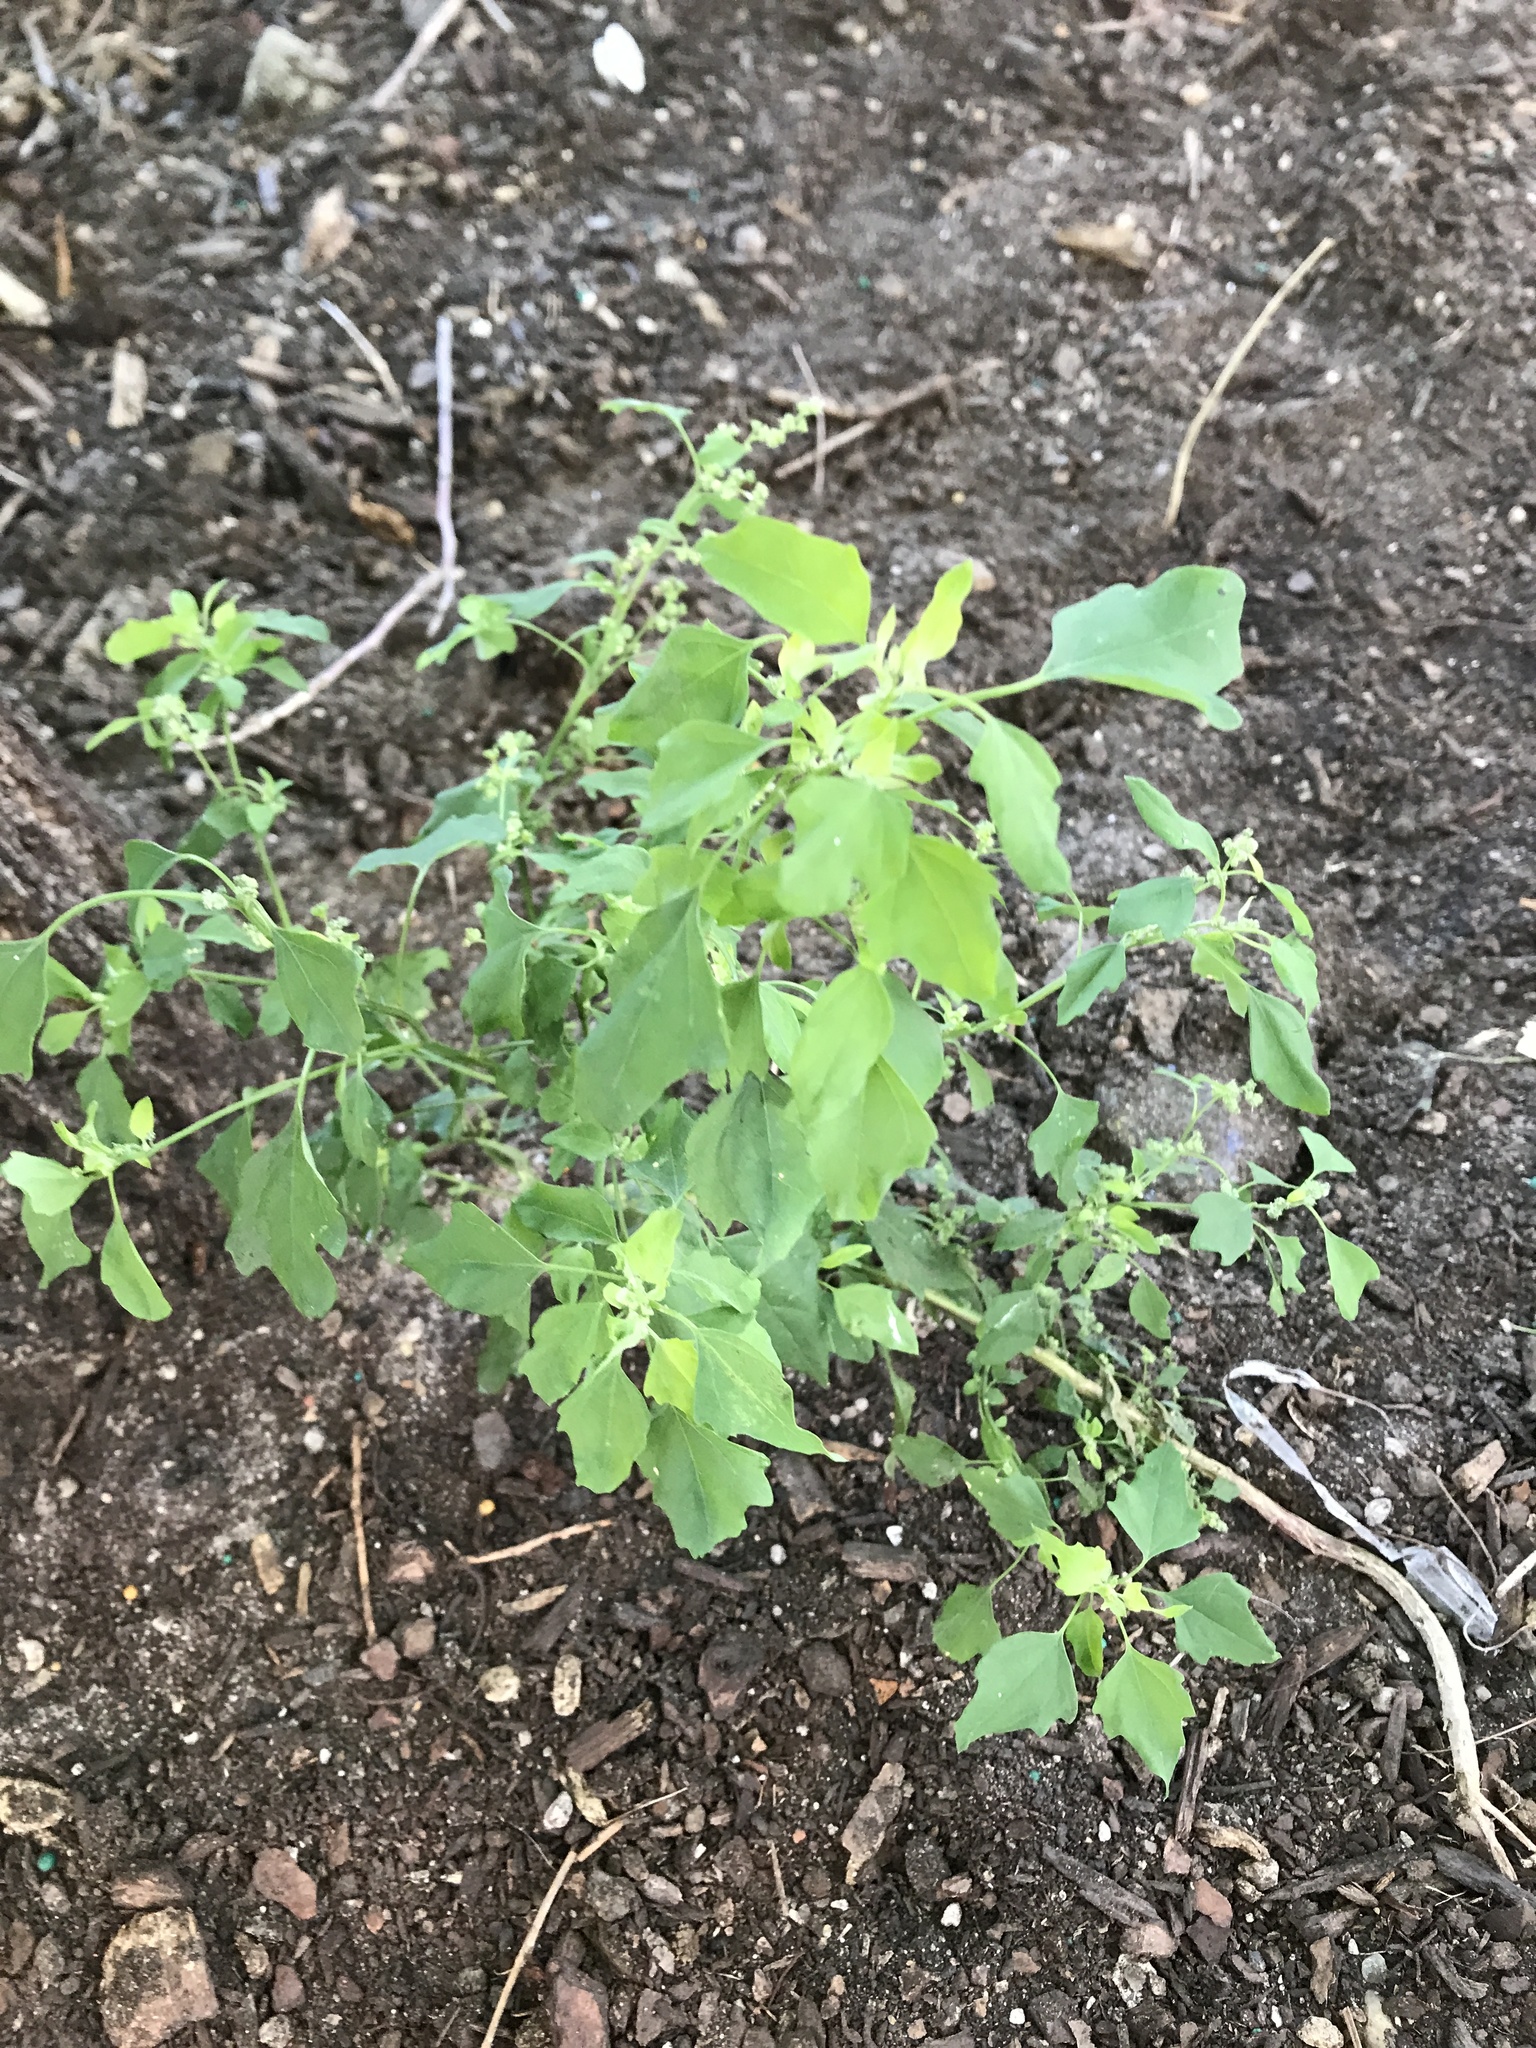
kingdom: Plantae
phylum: Tracheophyta
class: Magnoliopsida
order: Caryophyllales
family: Amaranthaceae
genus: Chenopodium
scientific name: Chenopodium album
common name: Fat-hen
